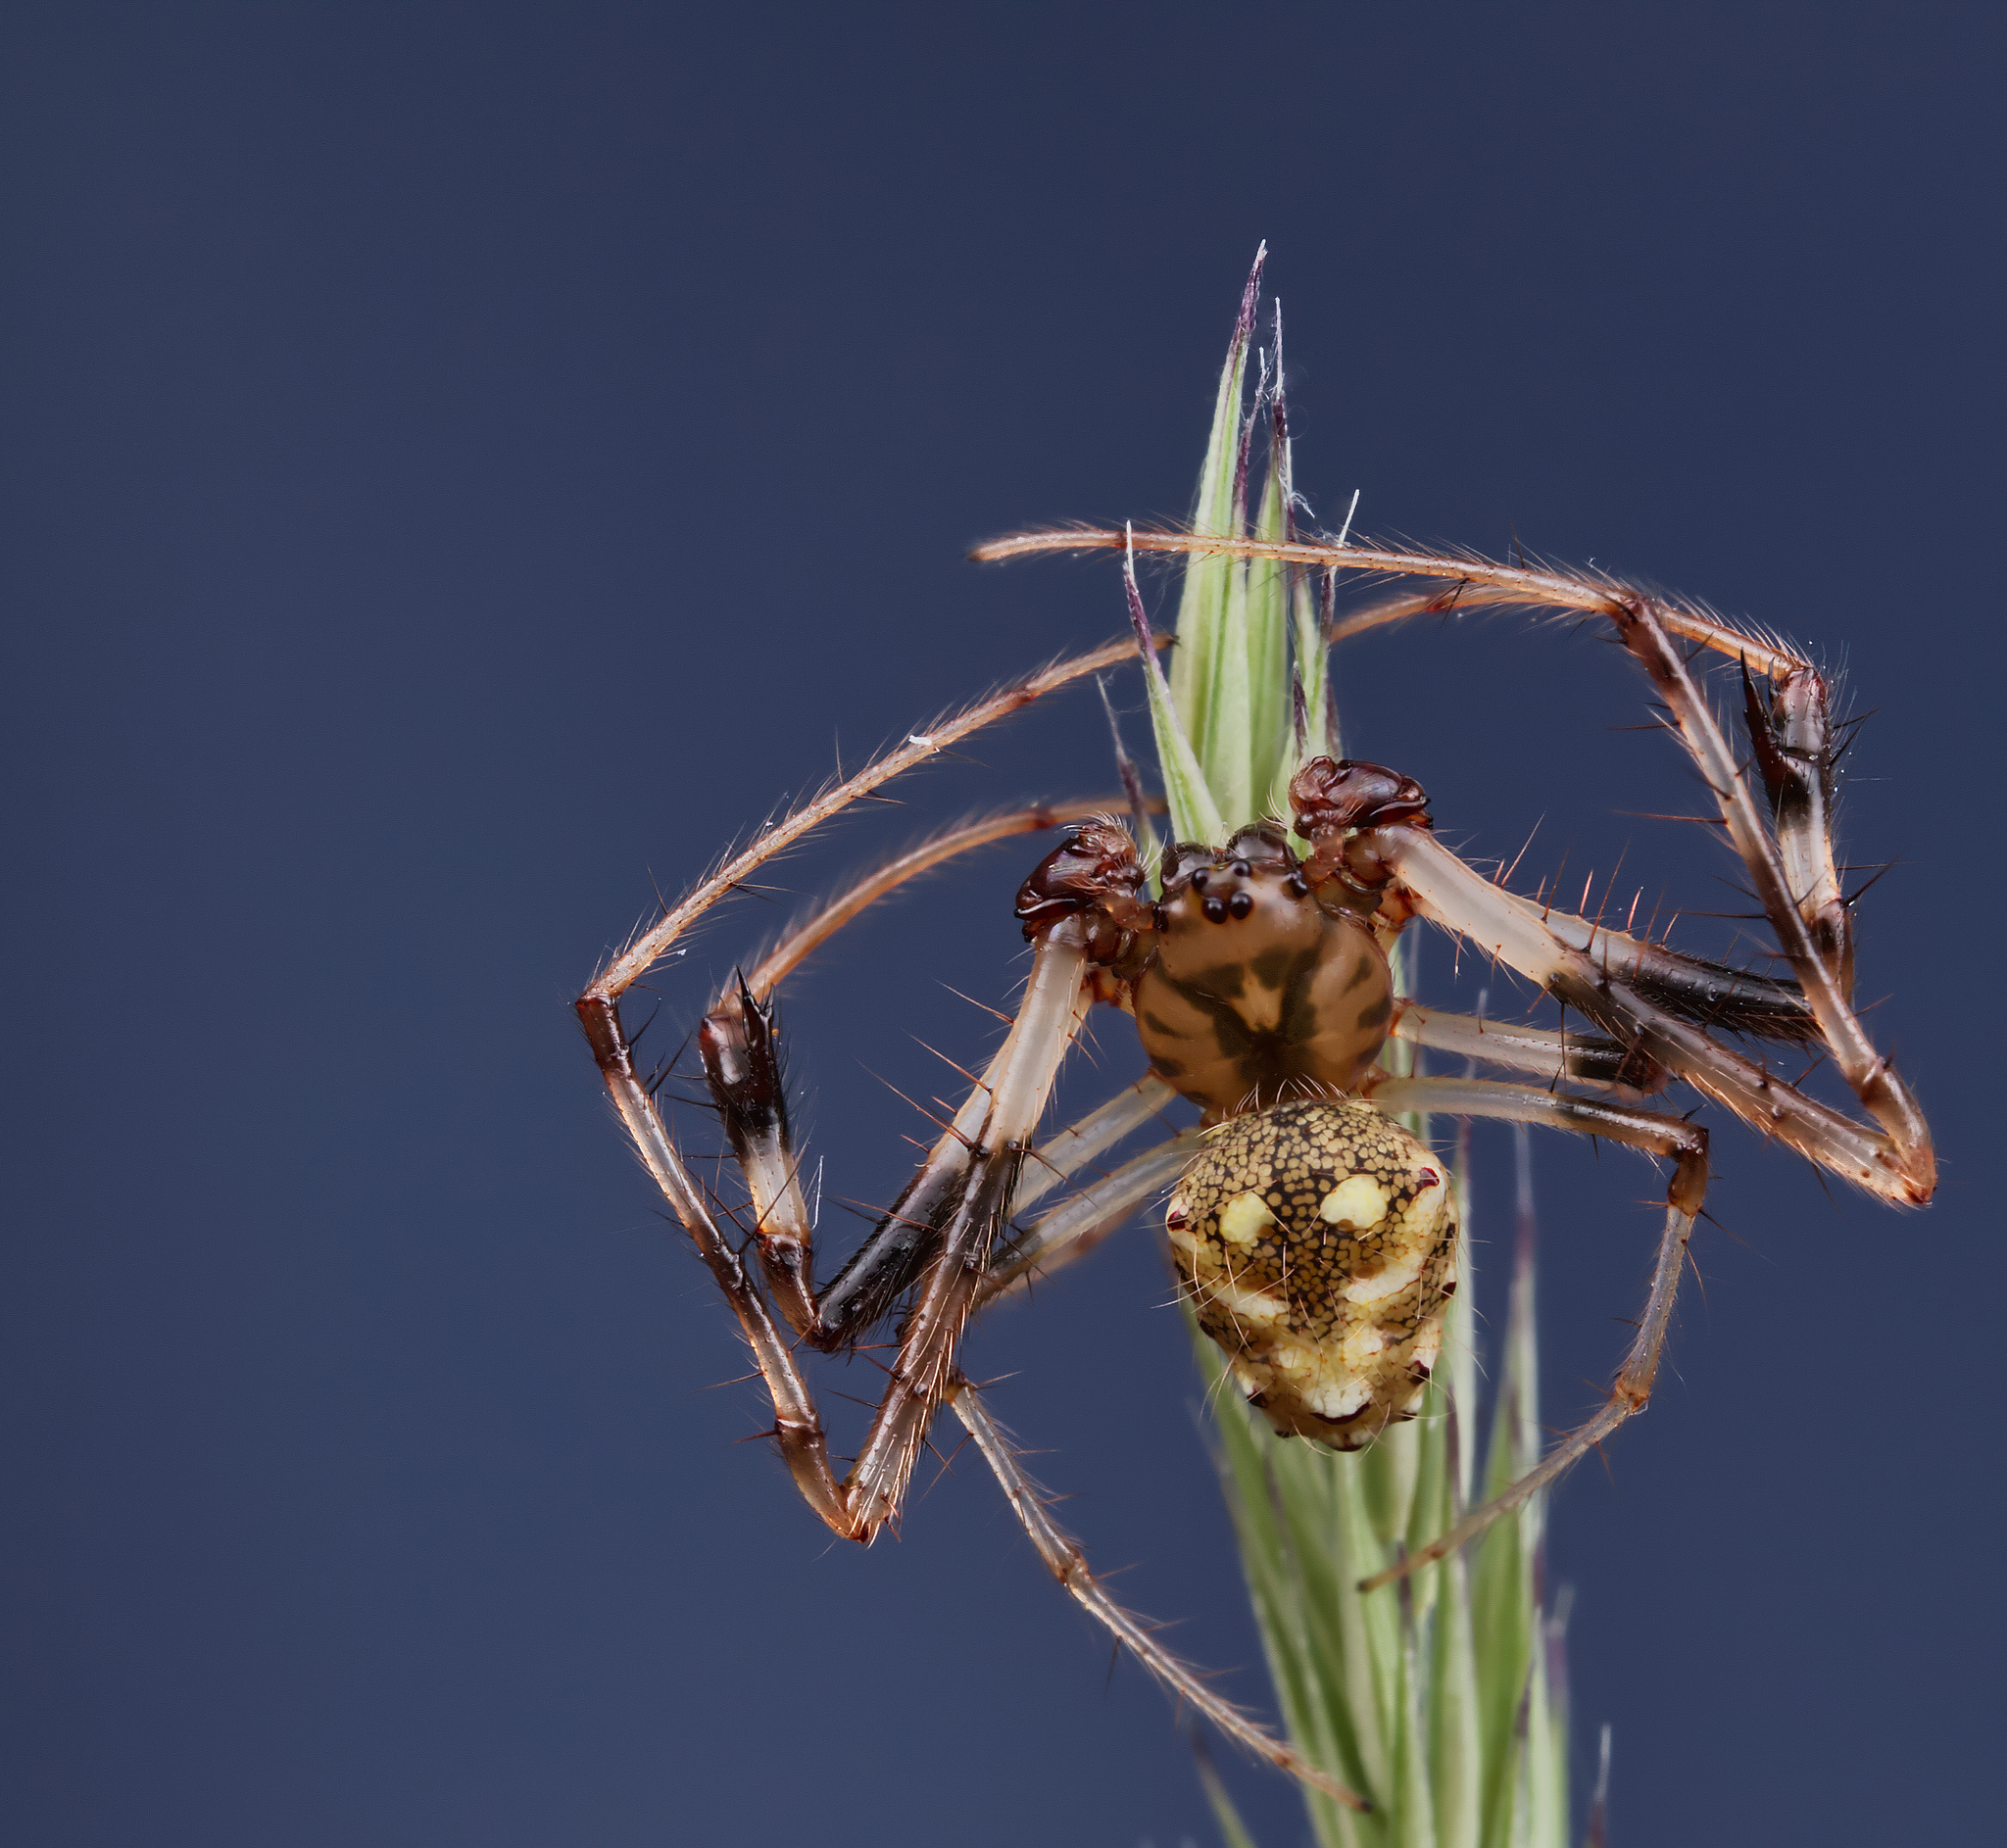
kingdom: Animalia
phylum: Arthropoda
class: Arachnida
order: Araneae
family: Araneidae
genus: Verrucosa
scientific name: Verrucosa arenata
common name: Orb weavers
